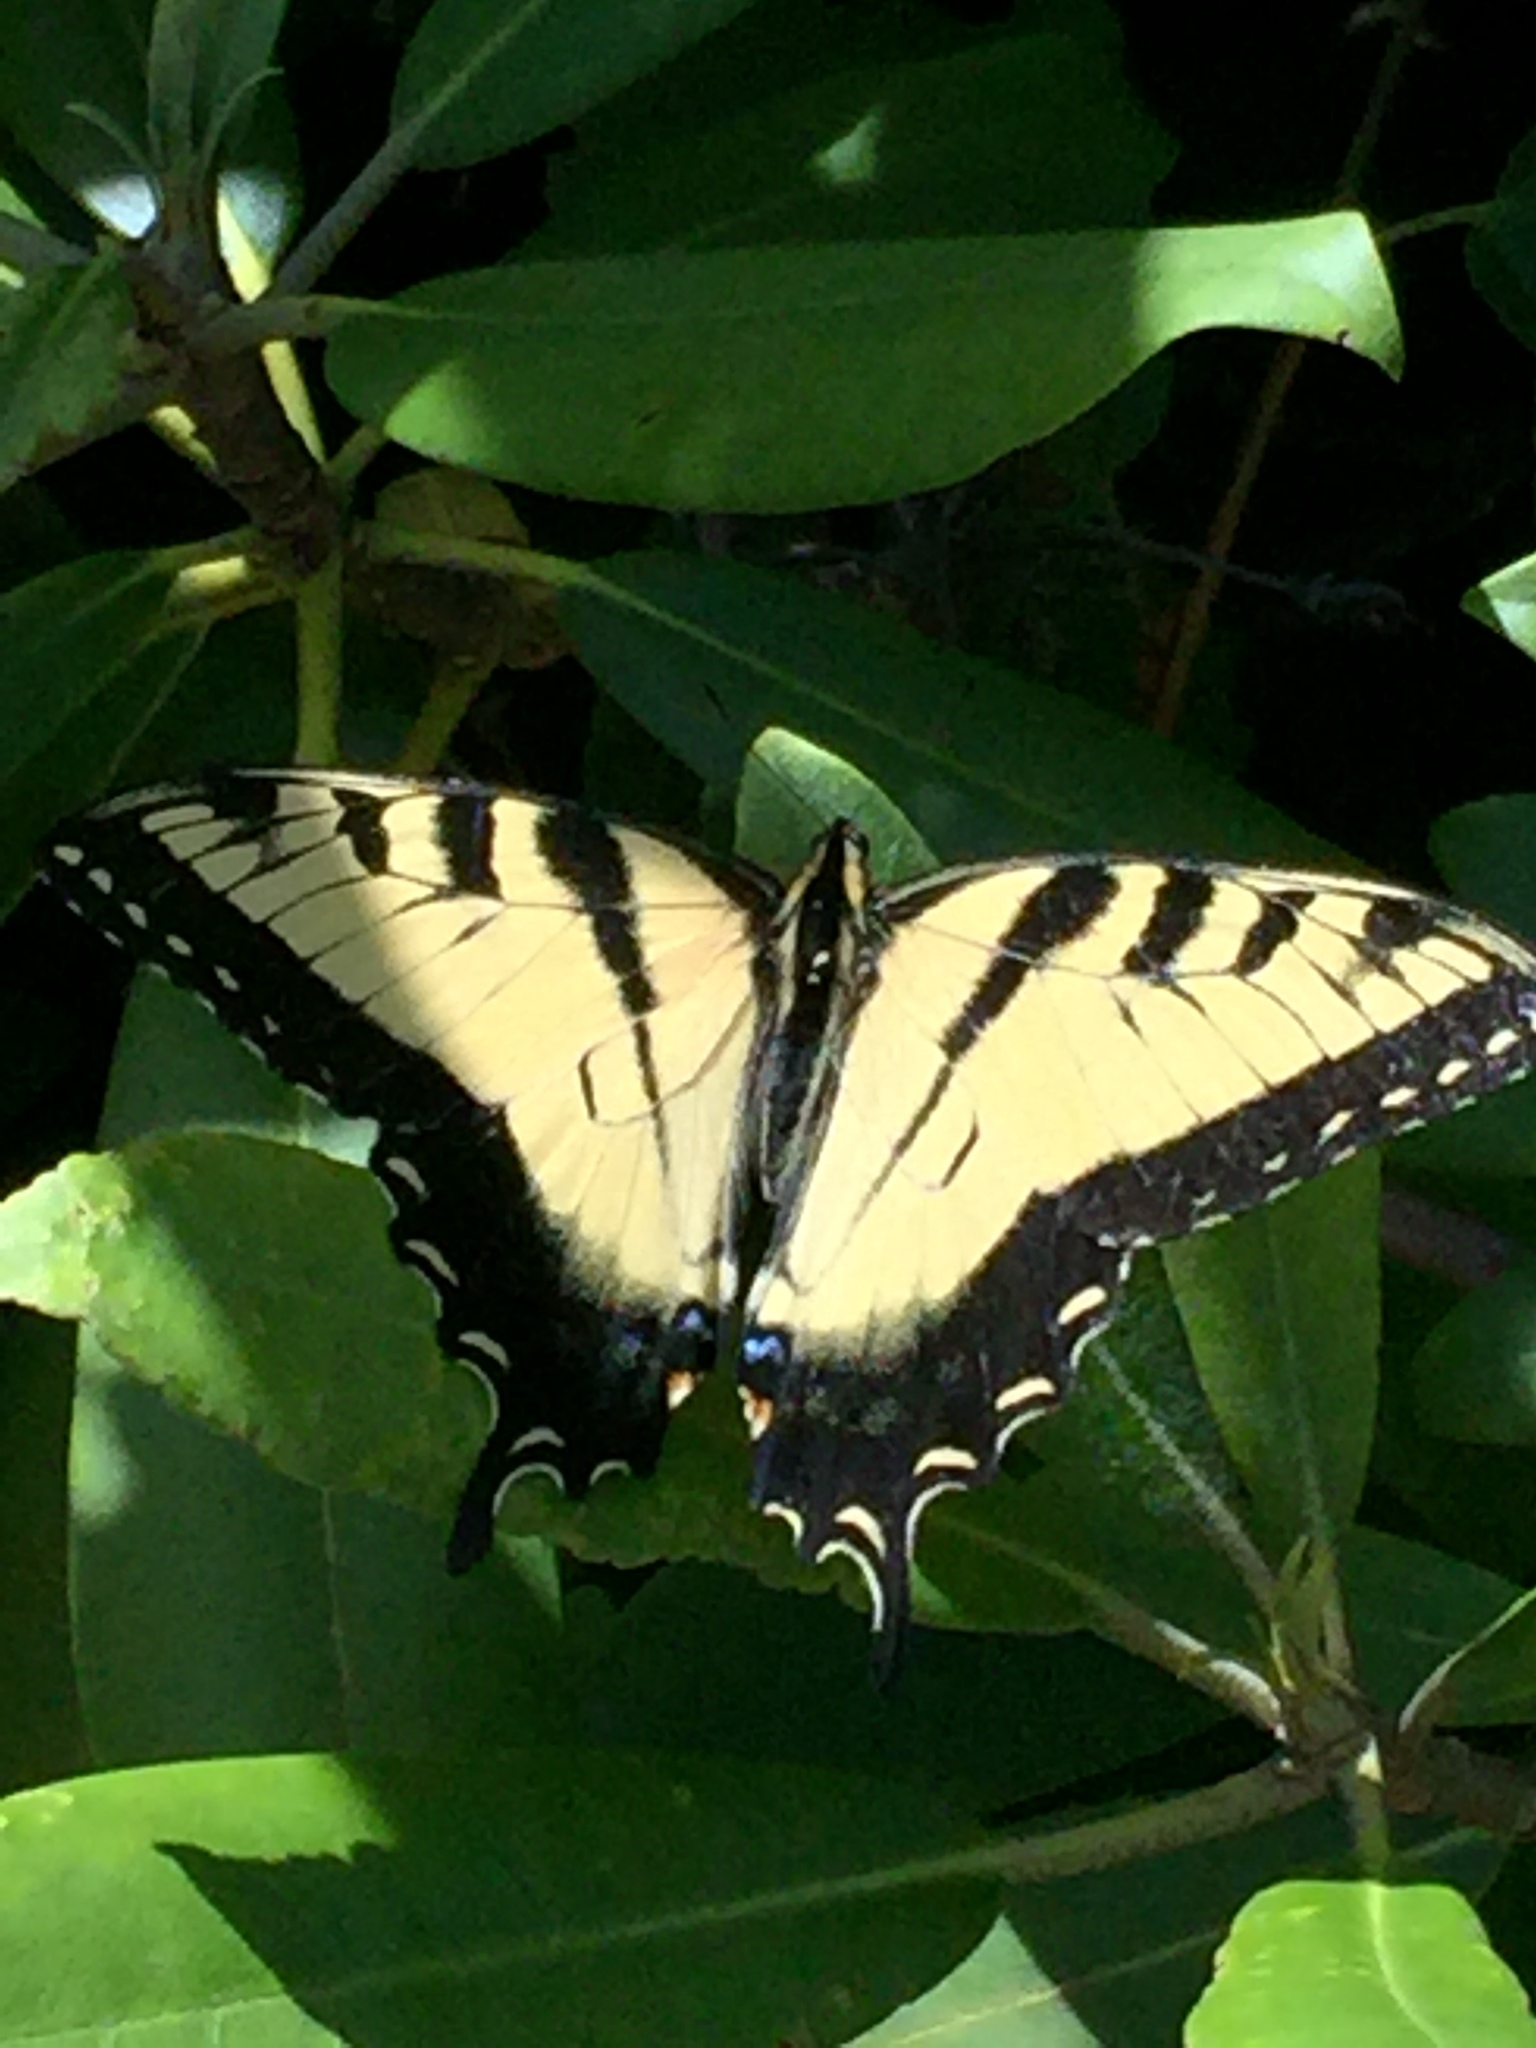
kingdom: Animalia
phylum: Arthropoda
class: Insecta
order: Lepidoptera
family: Papilionidae
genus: Papilio
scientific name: Papilio glaucus
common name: Tiger swallowtail
